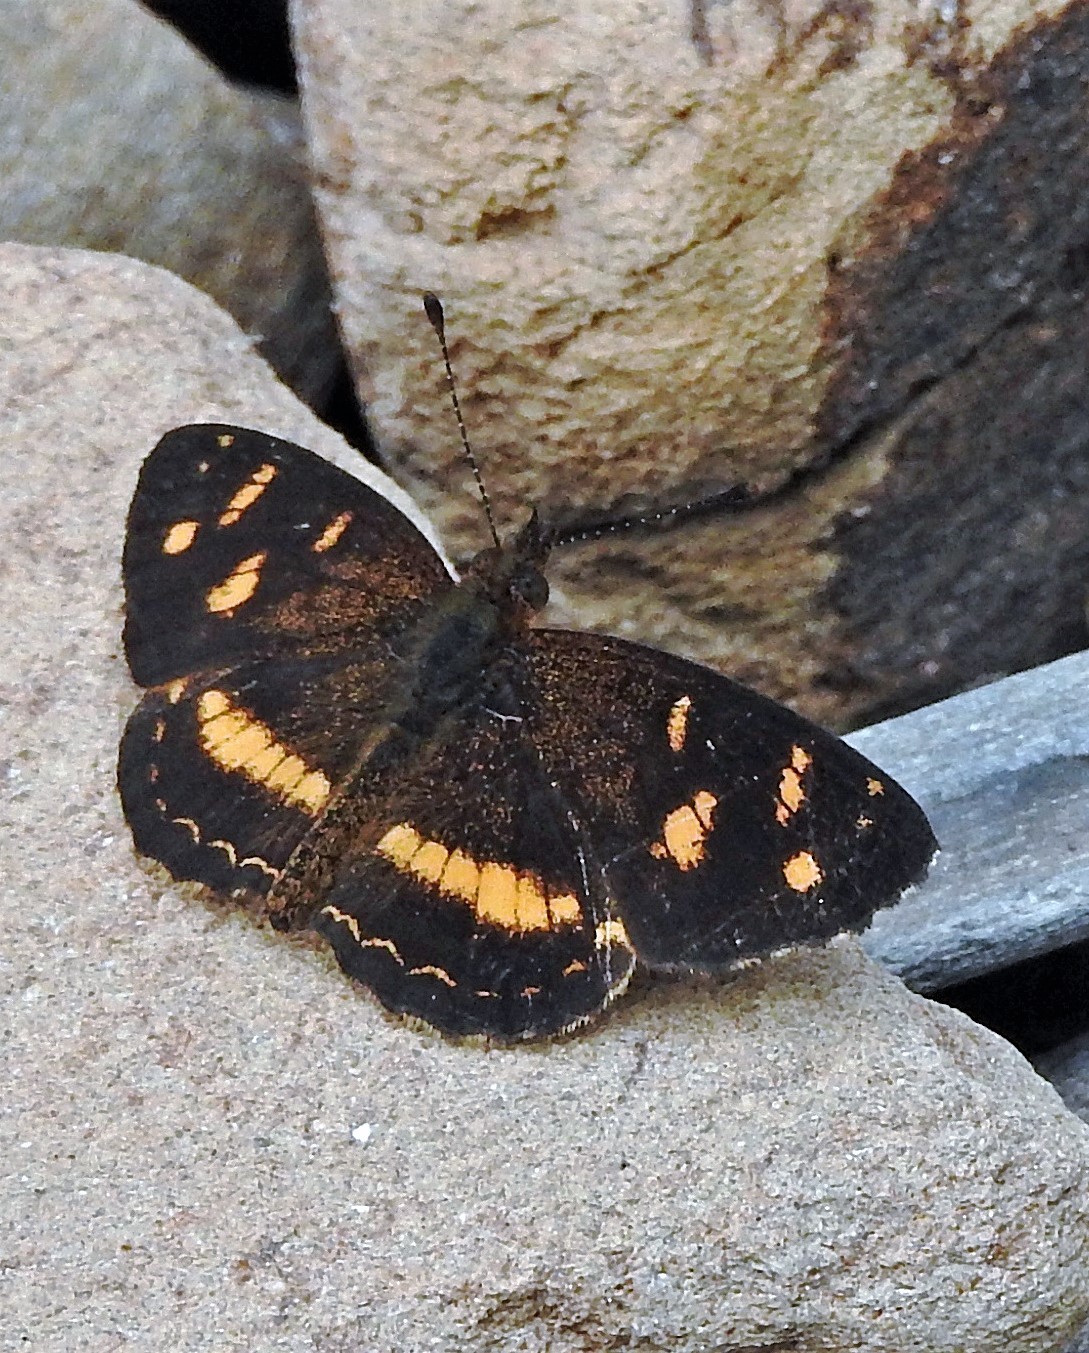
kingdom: Animalia
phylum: Arthropoda
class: Insecta
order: Lepidoptera
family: Nymphalidae
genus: Telenassa
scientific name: Telenassa berenice
